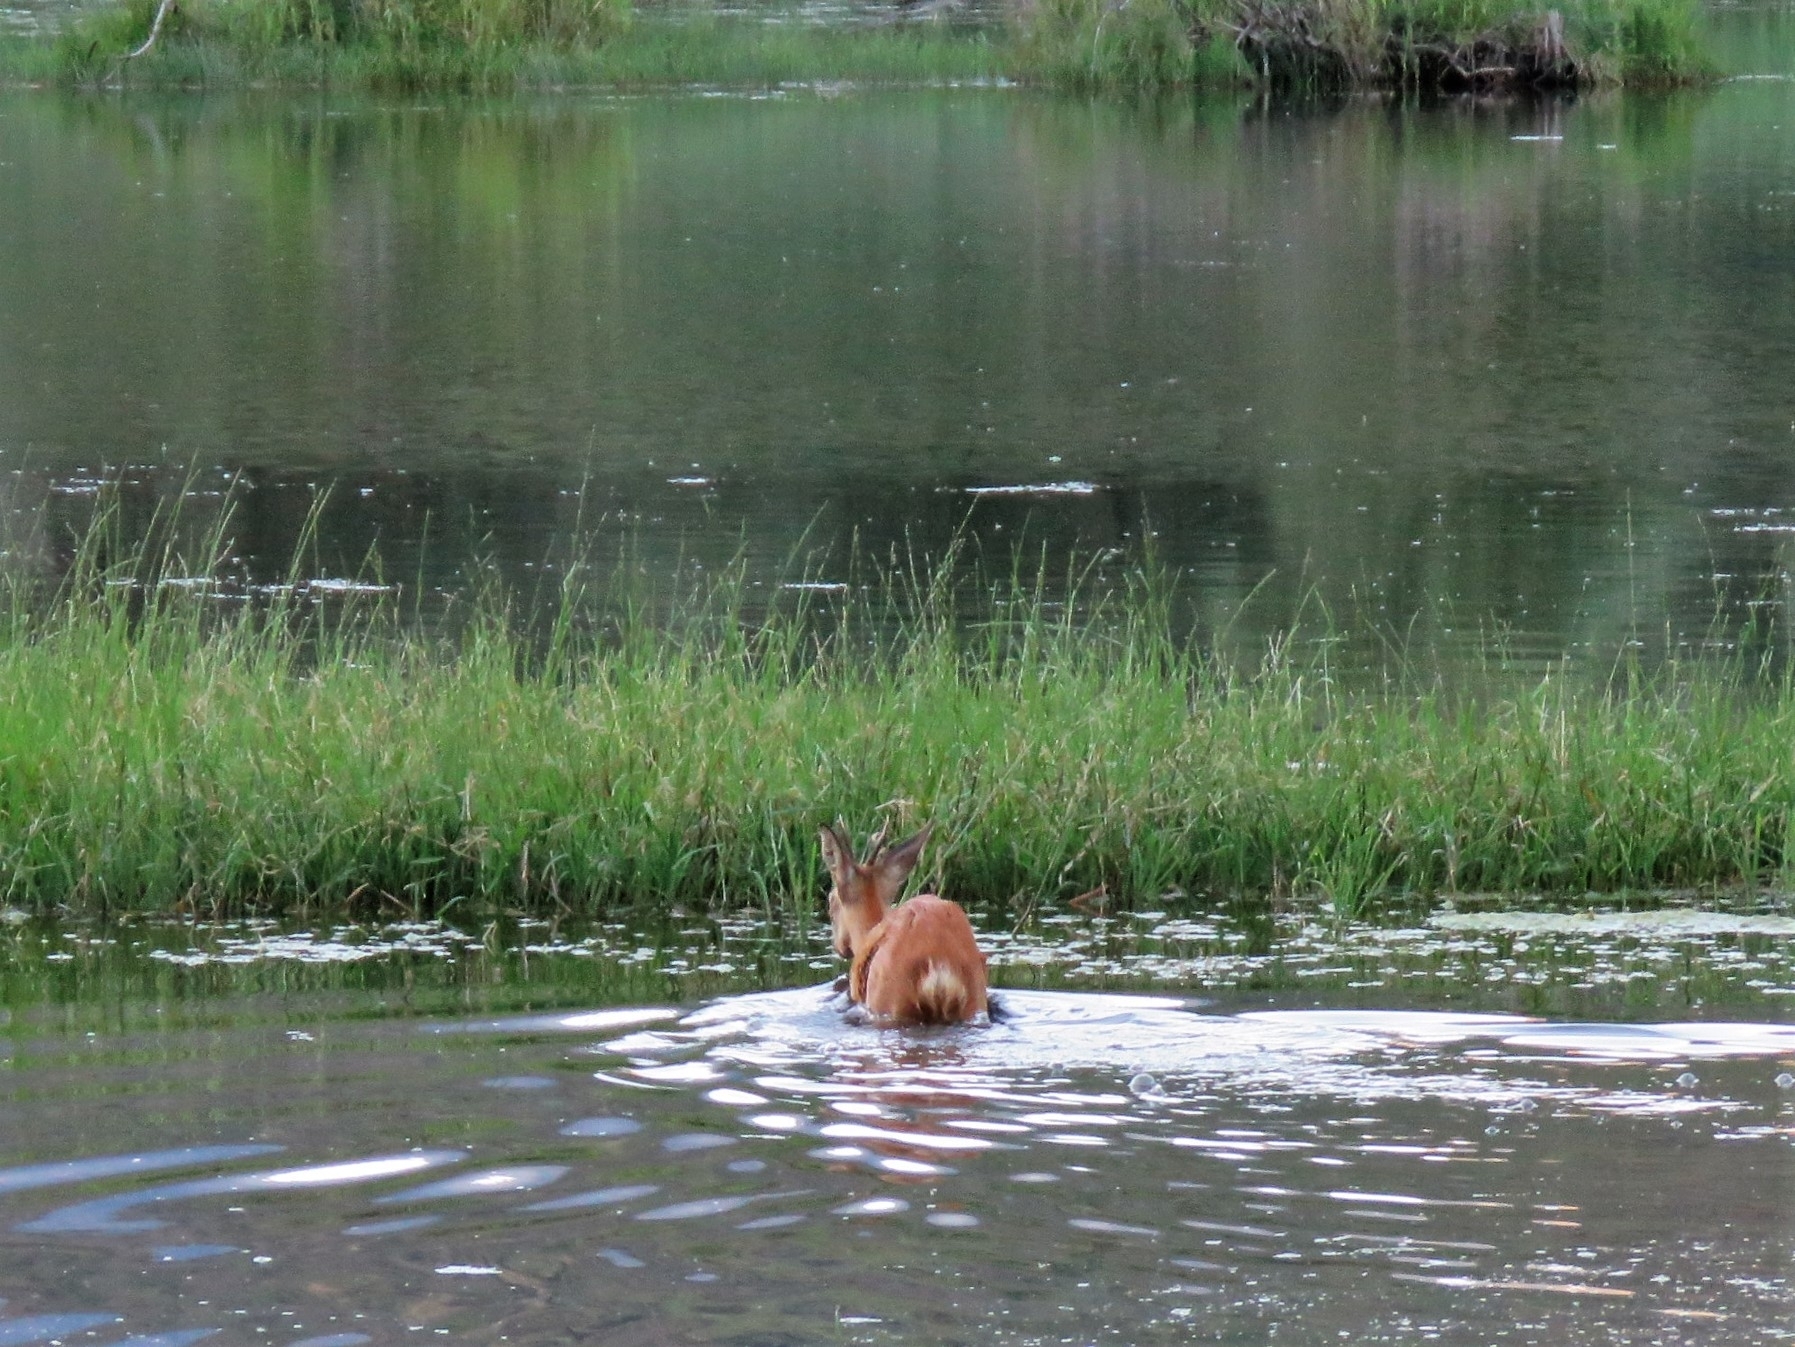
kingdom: Animalia
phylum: Chordata
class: Mammalia
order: Artiodactyla
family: Cervidae
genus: Capreolus
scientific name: Capreolus capreolus
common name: Western roe deer
